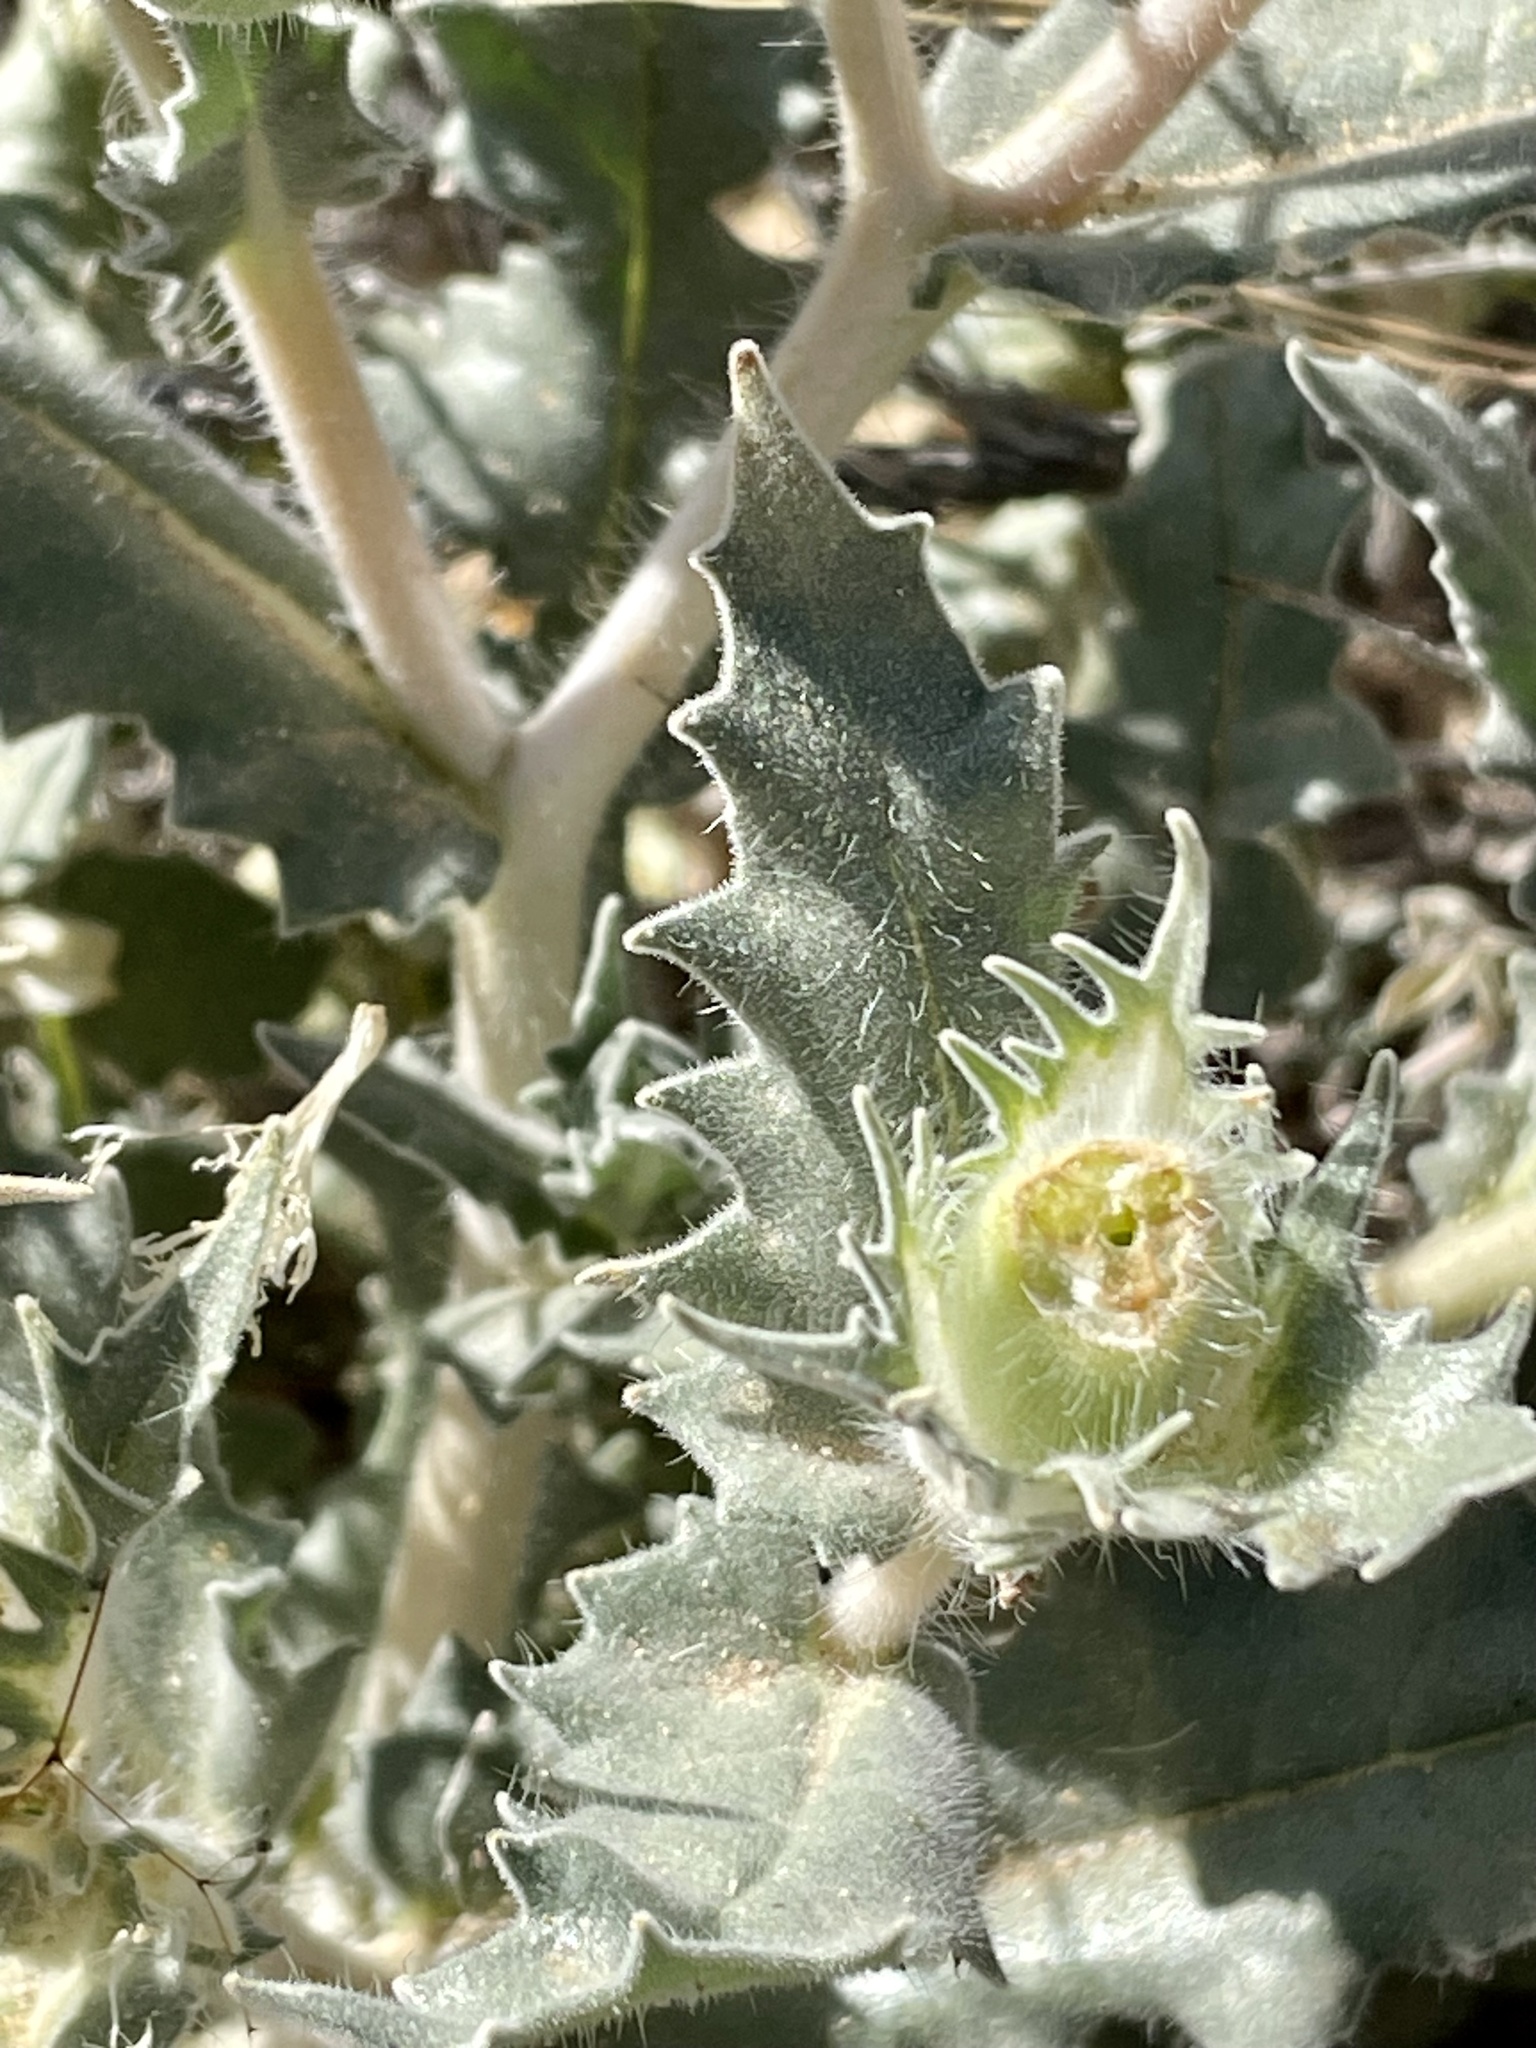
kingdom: Plantae
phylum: Tracheophyta
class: Magnoliopsida
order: Cornales
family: Loasaceae
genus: Mentzelia
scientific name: Mentzelia involucrata
